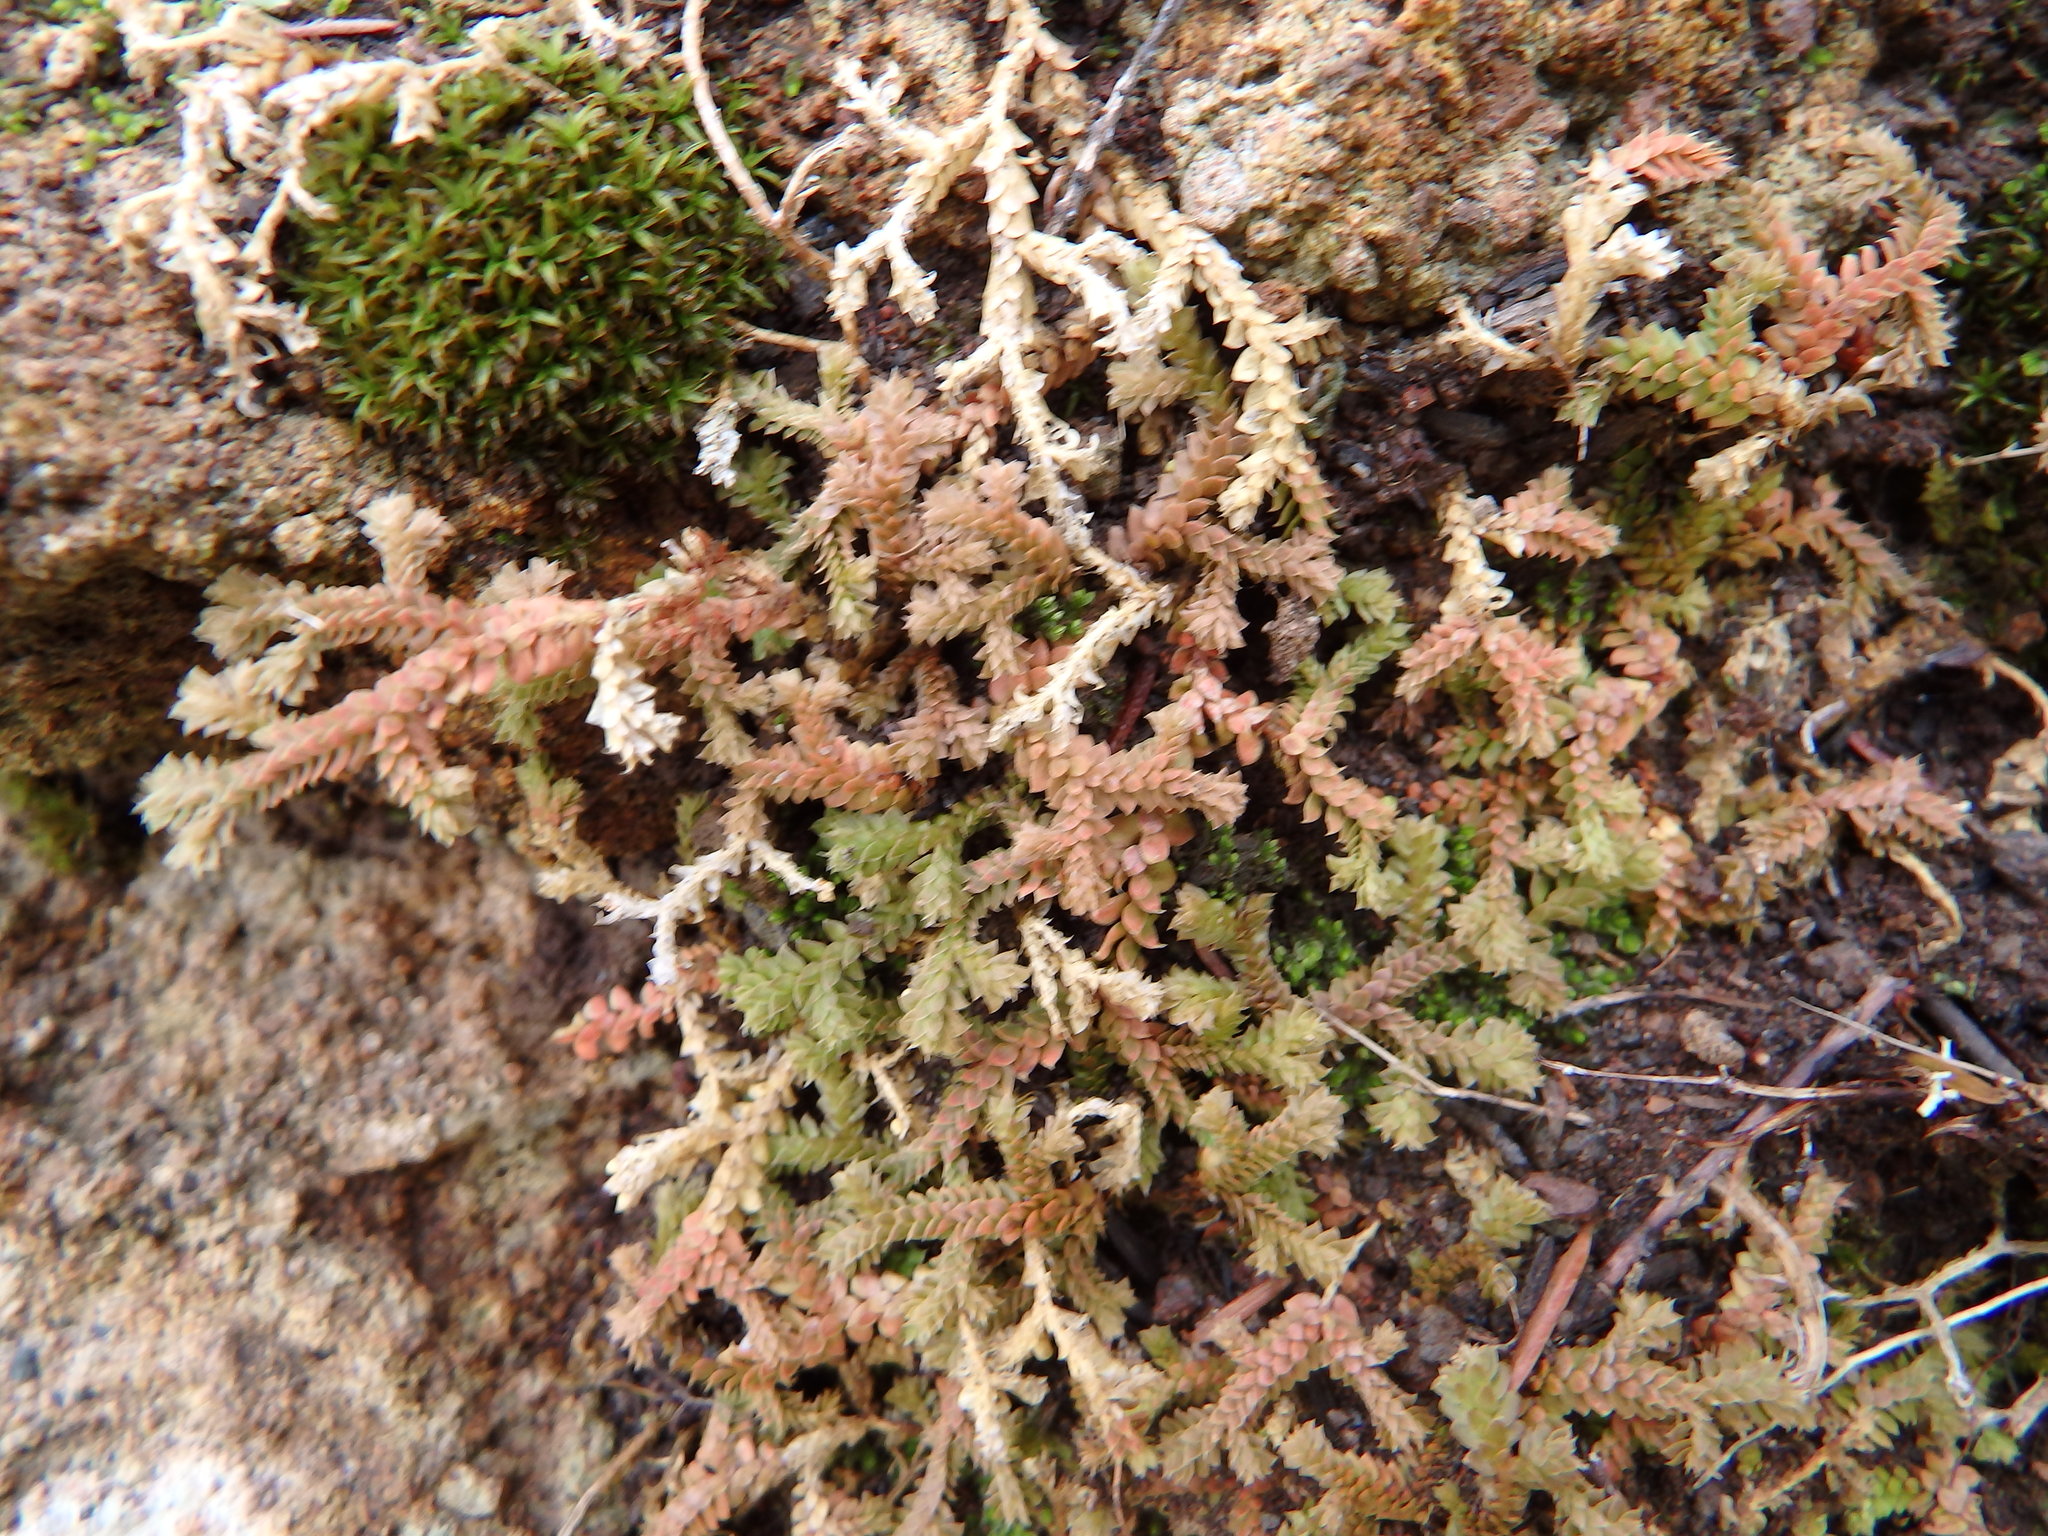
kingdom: Plantae
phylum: Tracheophyta
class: Lycopodiopsida
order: Selaginellales
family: Selaginellaceae
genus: Selaginella
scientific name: Selaginella denticulata
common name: Toothed-leaved clubmoss
